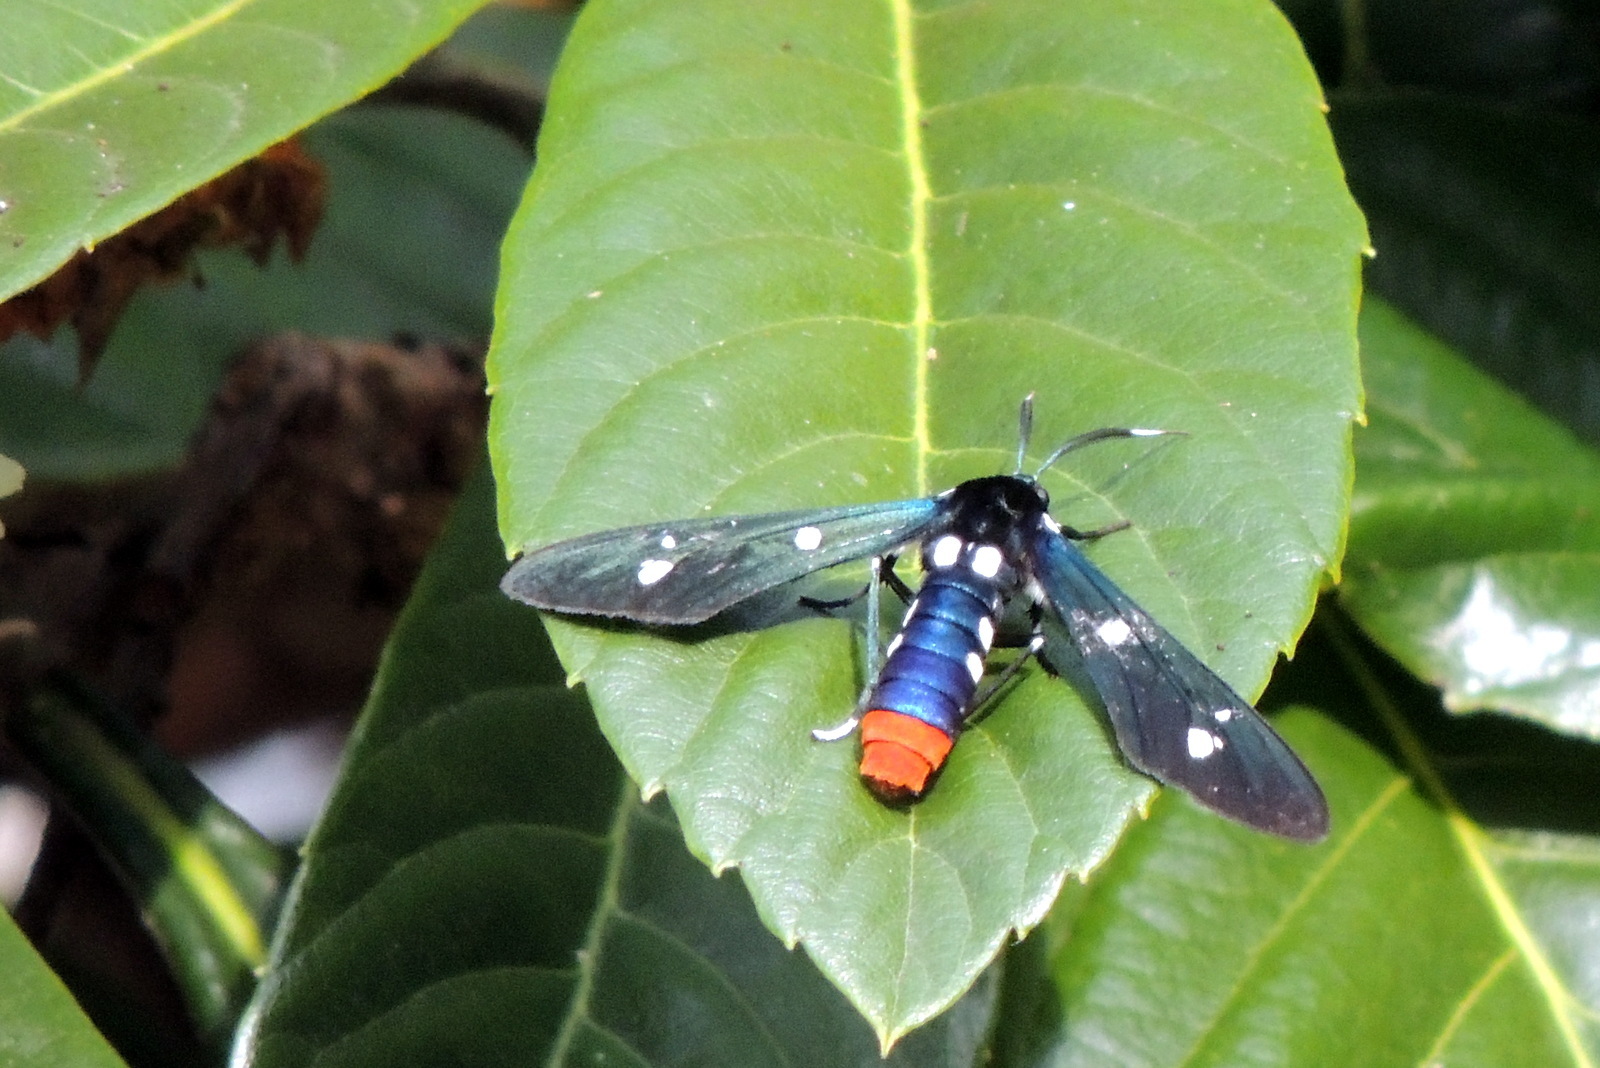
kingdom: Animalia
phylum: Arthropoda
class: Insecta
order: Lepidoptera
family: Erebidae
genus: Syntomeida
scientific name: Syntomeida epilais
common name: Polka-dot wasp moth
